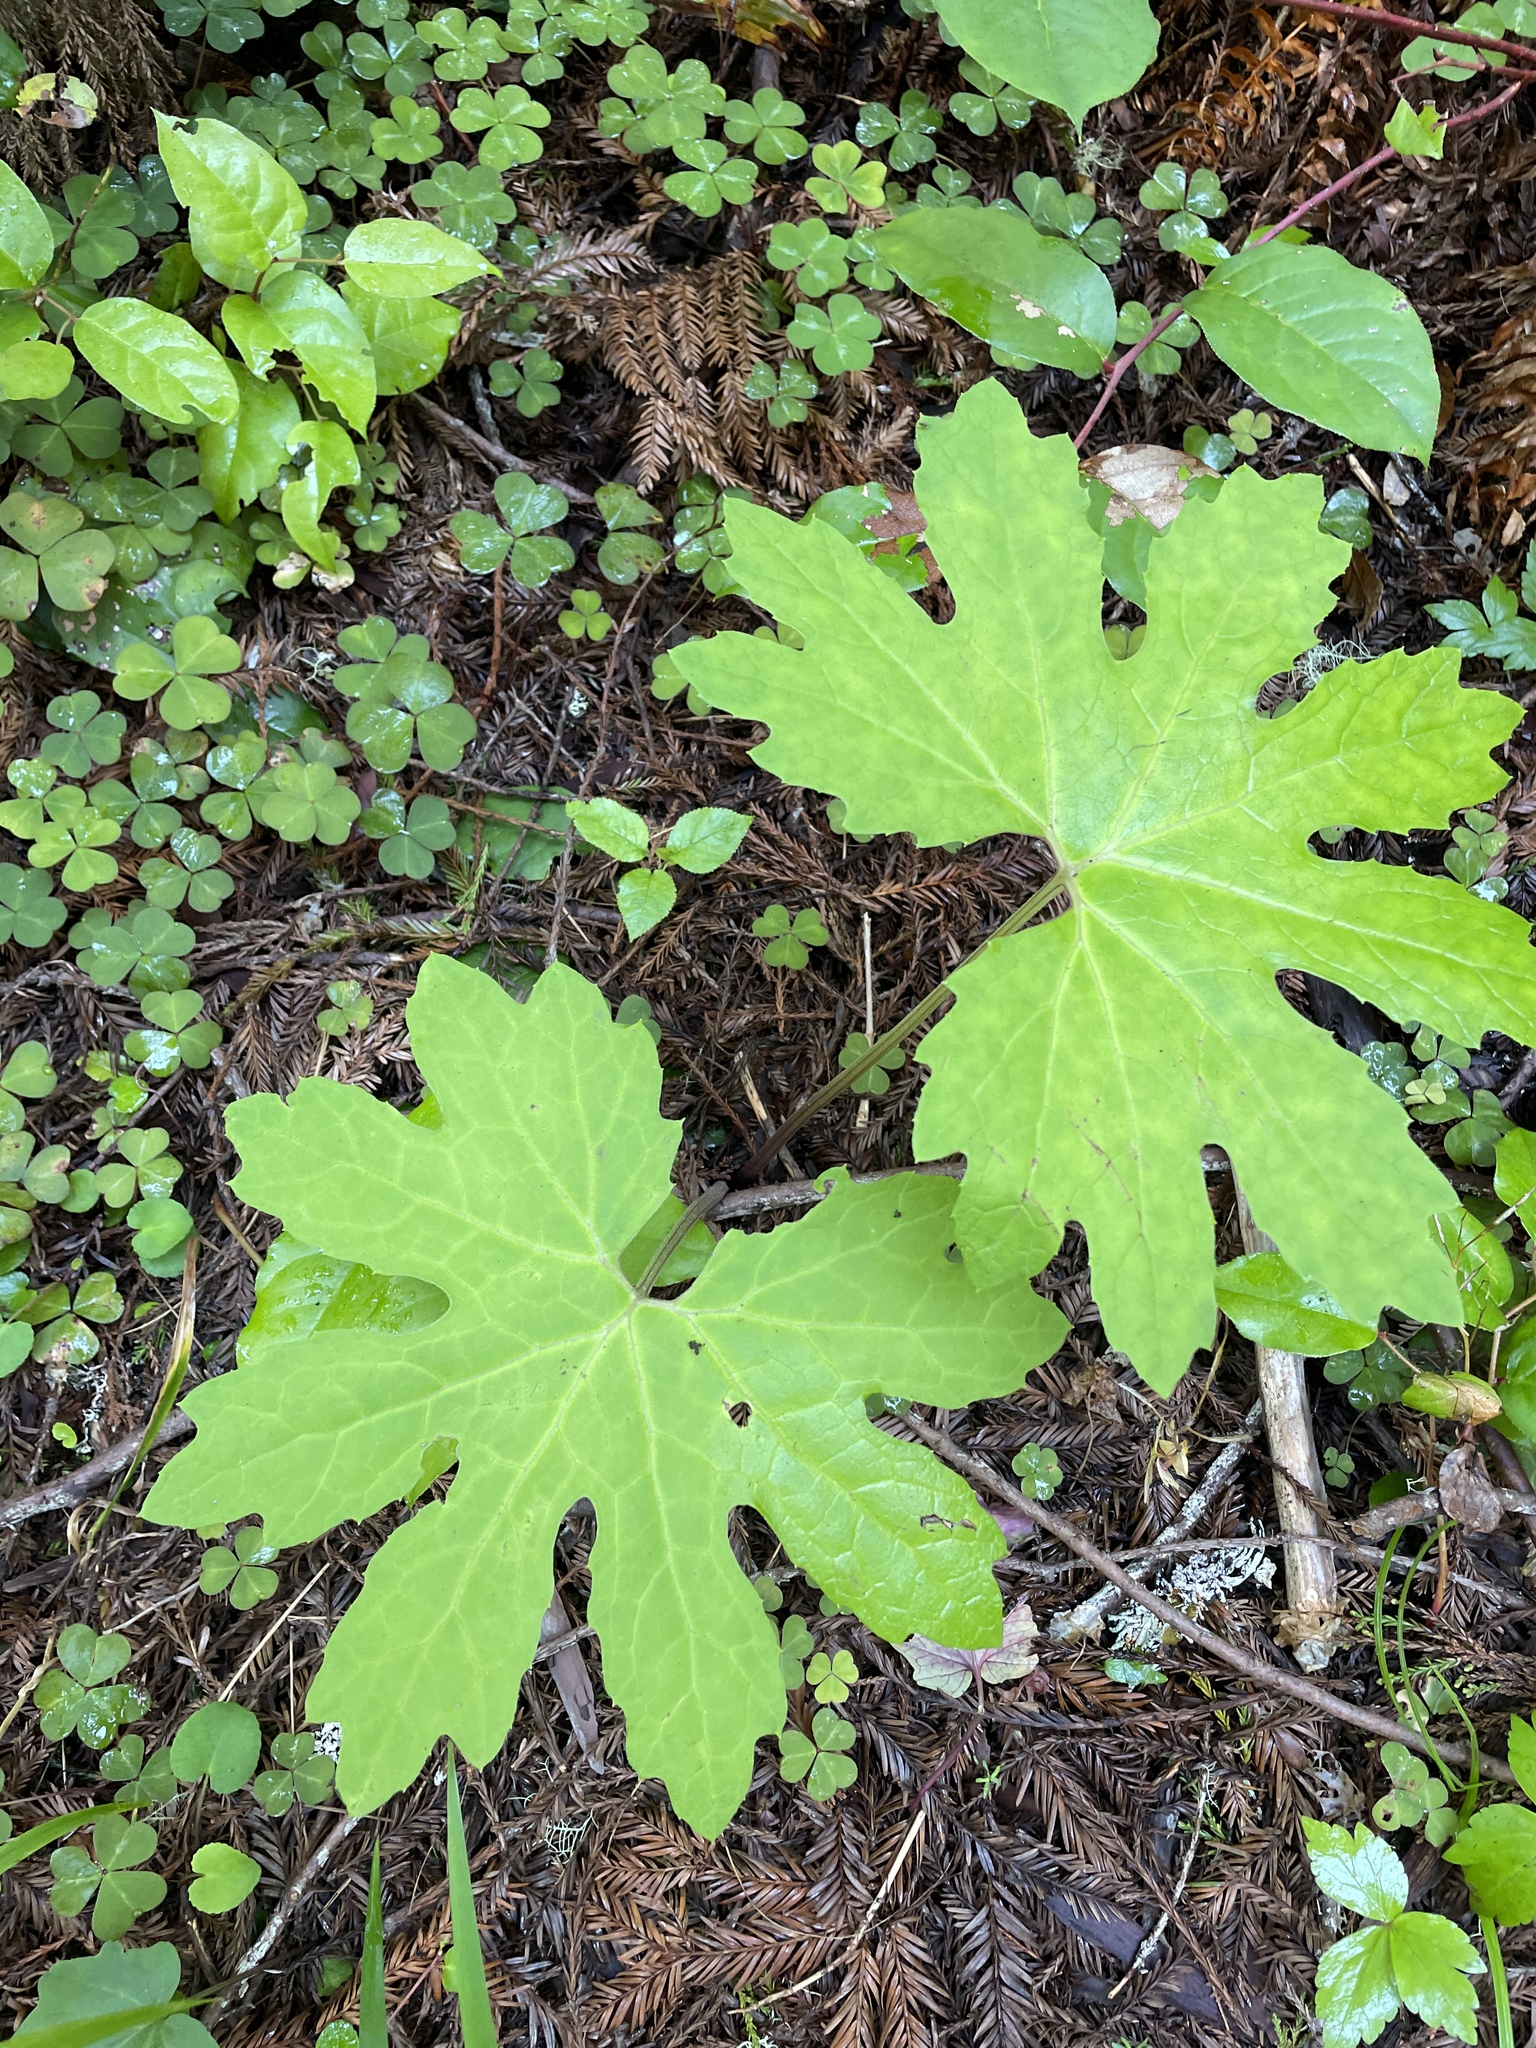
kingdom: Plantae
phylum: Tracheophyta
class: Magnoliopsida
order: Asterales
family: Asteraceae
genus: Petasites
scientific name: Petasites frigidus
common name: Arctic butterbur
